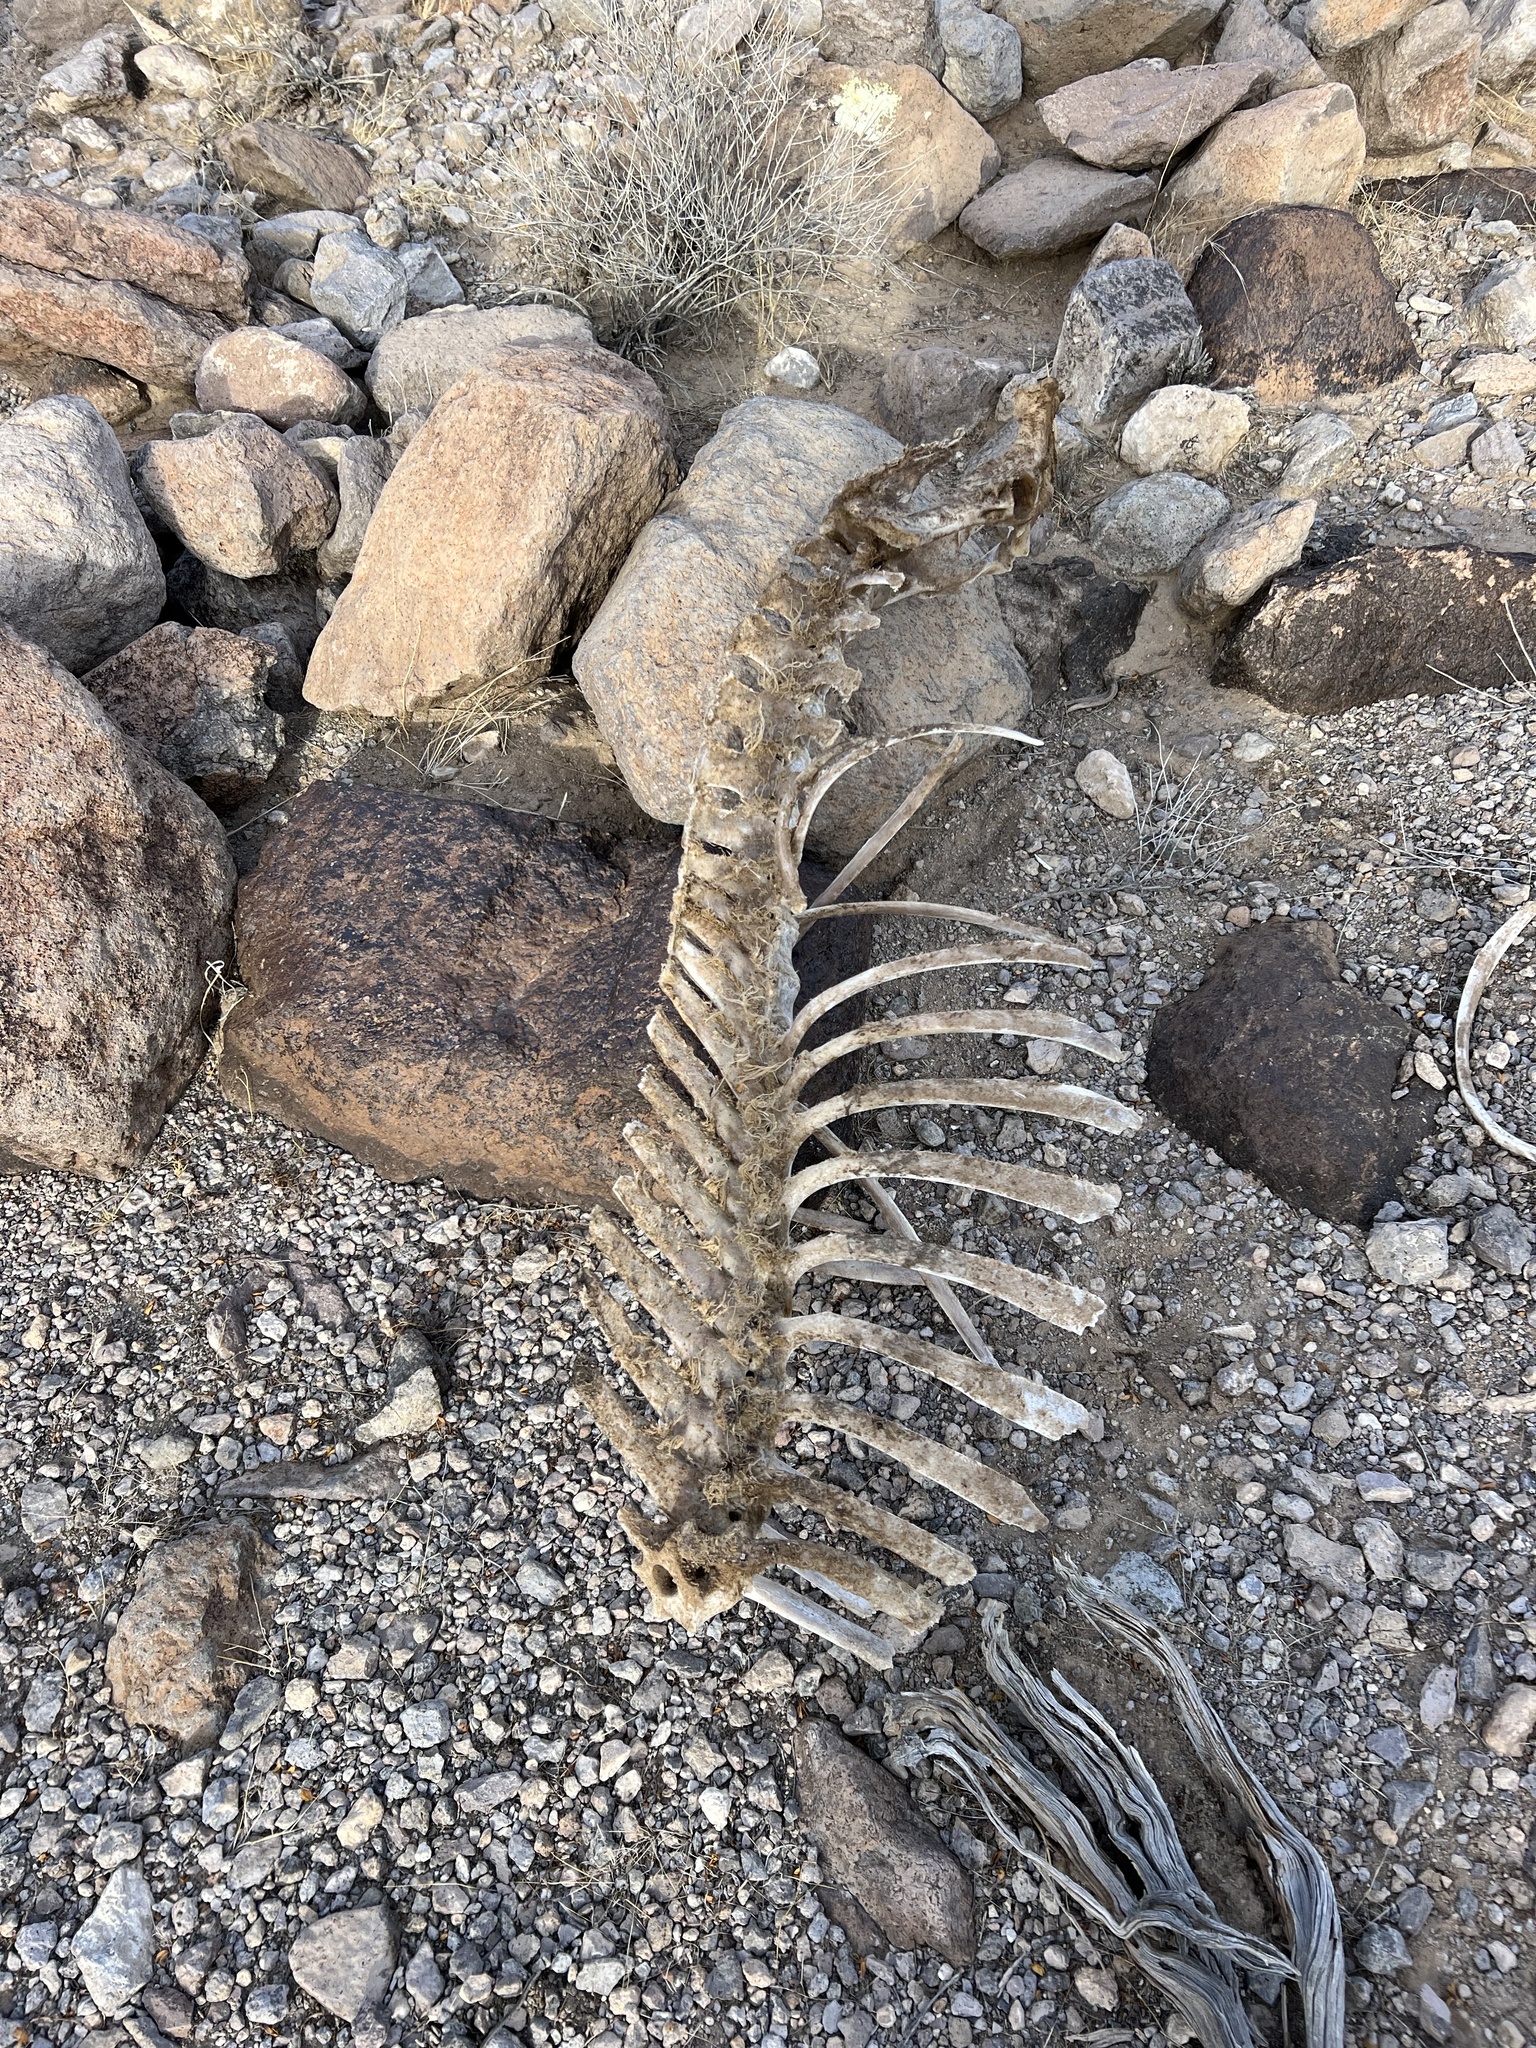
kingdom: Animalia
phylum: Chordata
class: Mammalia
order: Artiodactyla
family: Bovidae
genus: Ovis
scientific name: Ovis canadensis
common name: Bighorn sheep
